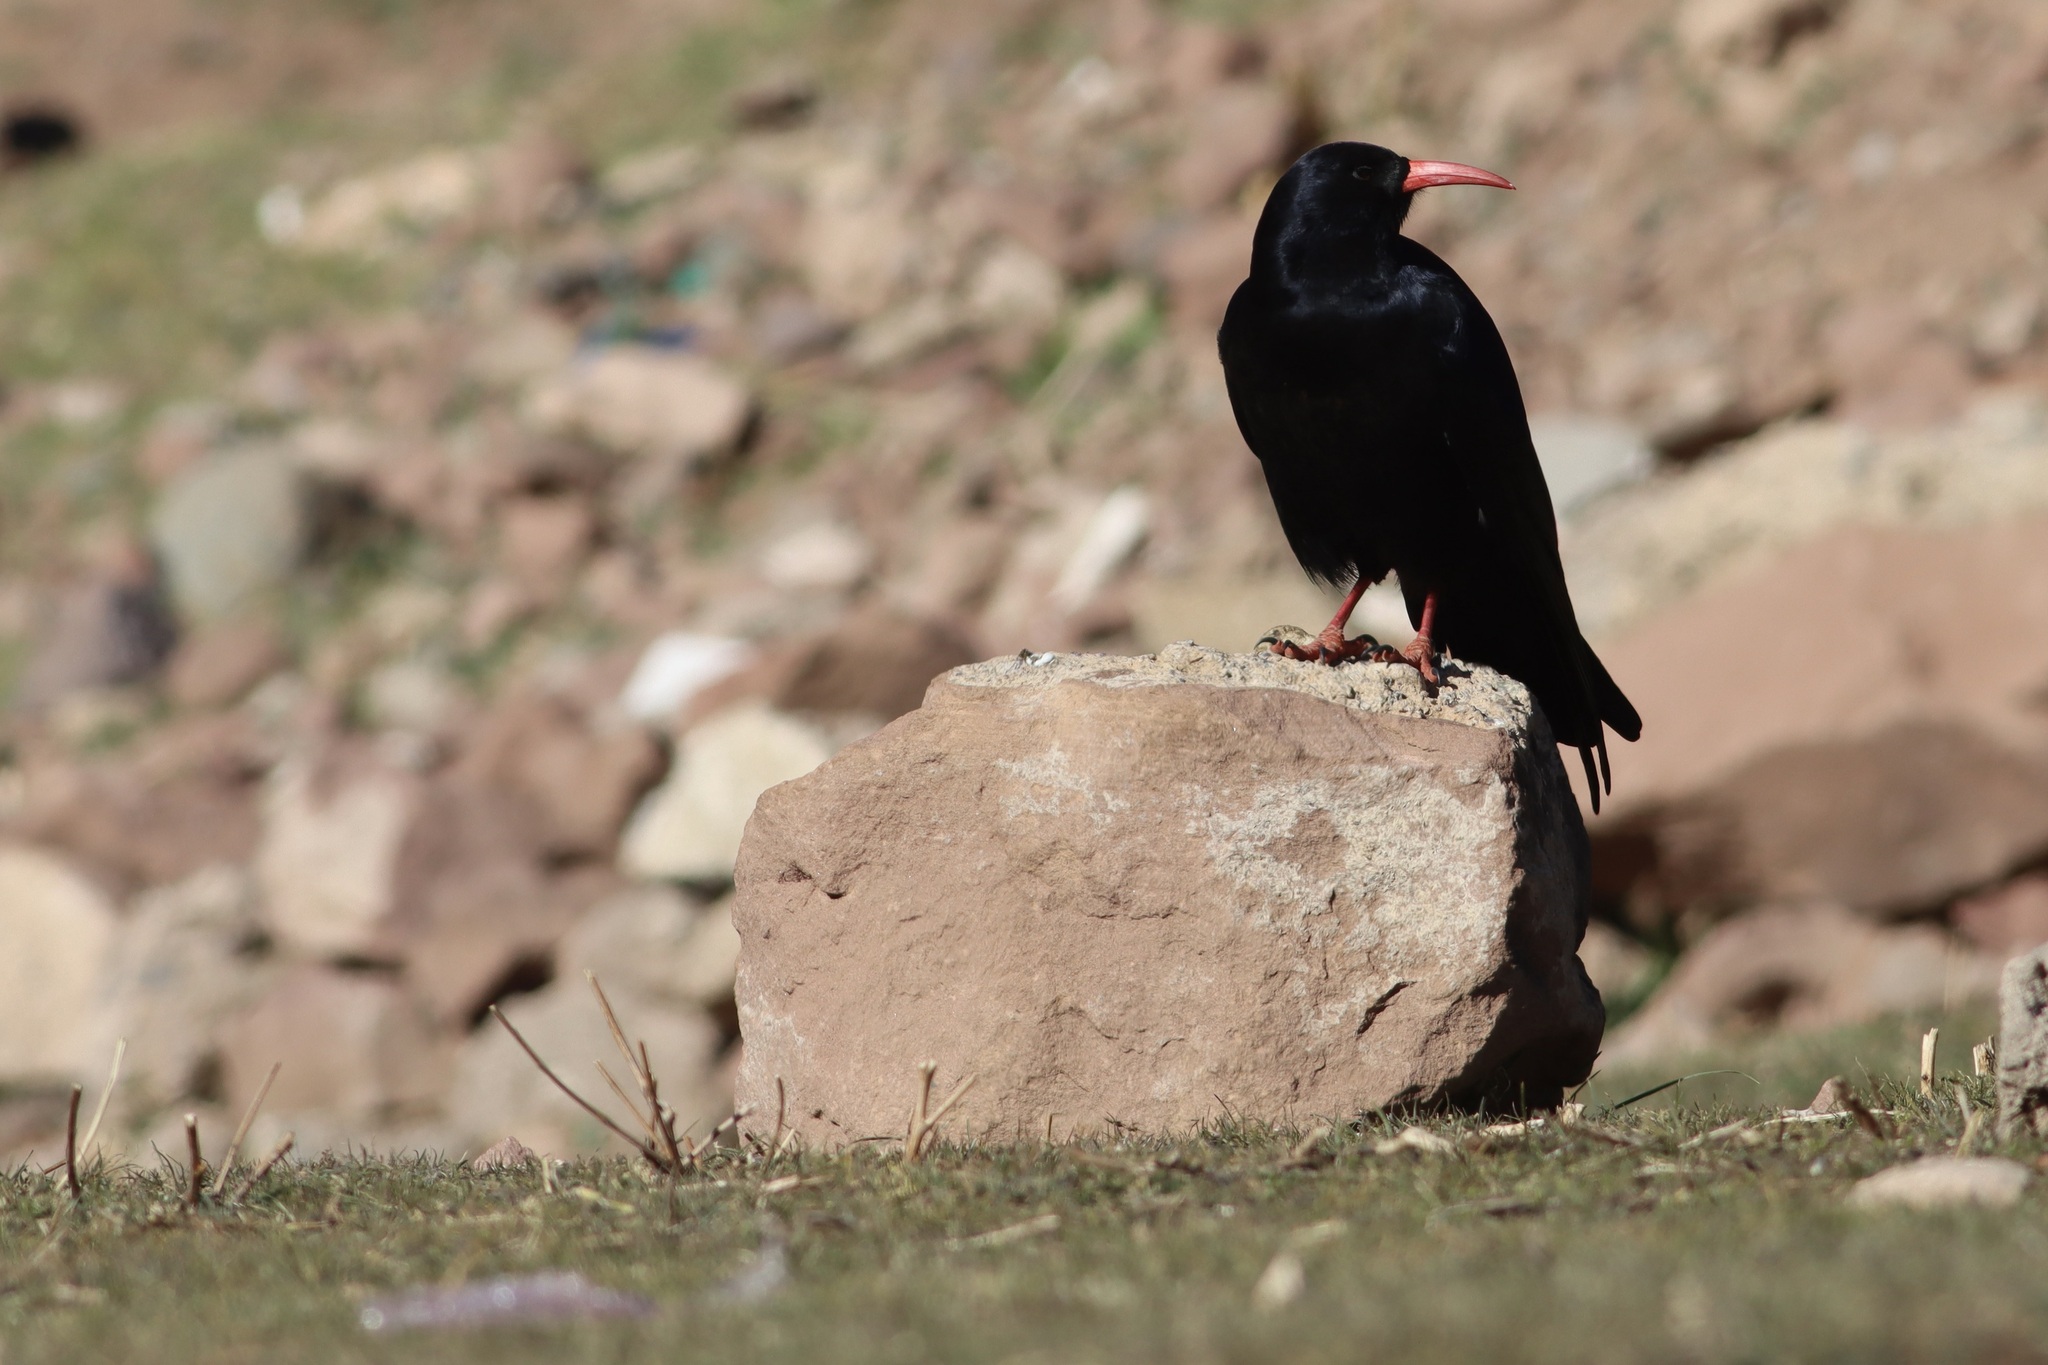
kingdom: Animalia
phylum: Chordata
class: Aves
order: Passeriformes
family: Corvidae
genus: Pyrrhocorax
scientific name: Pyrrhocorax pyrrhocorax
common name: Red-billed chough
